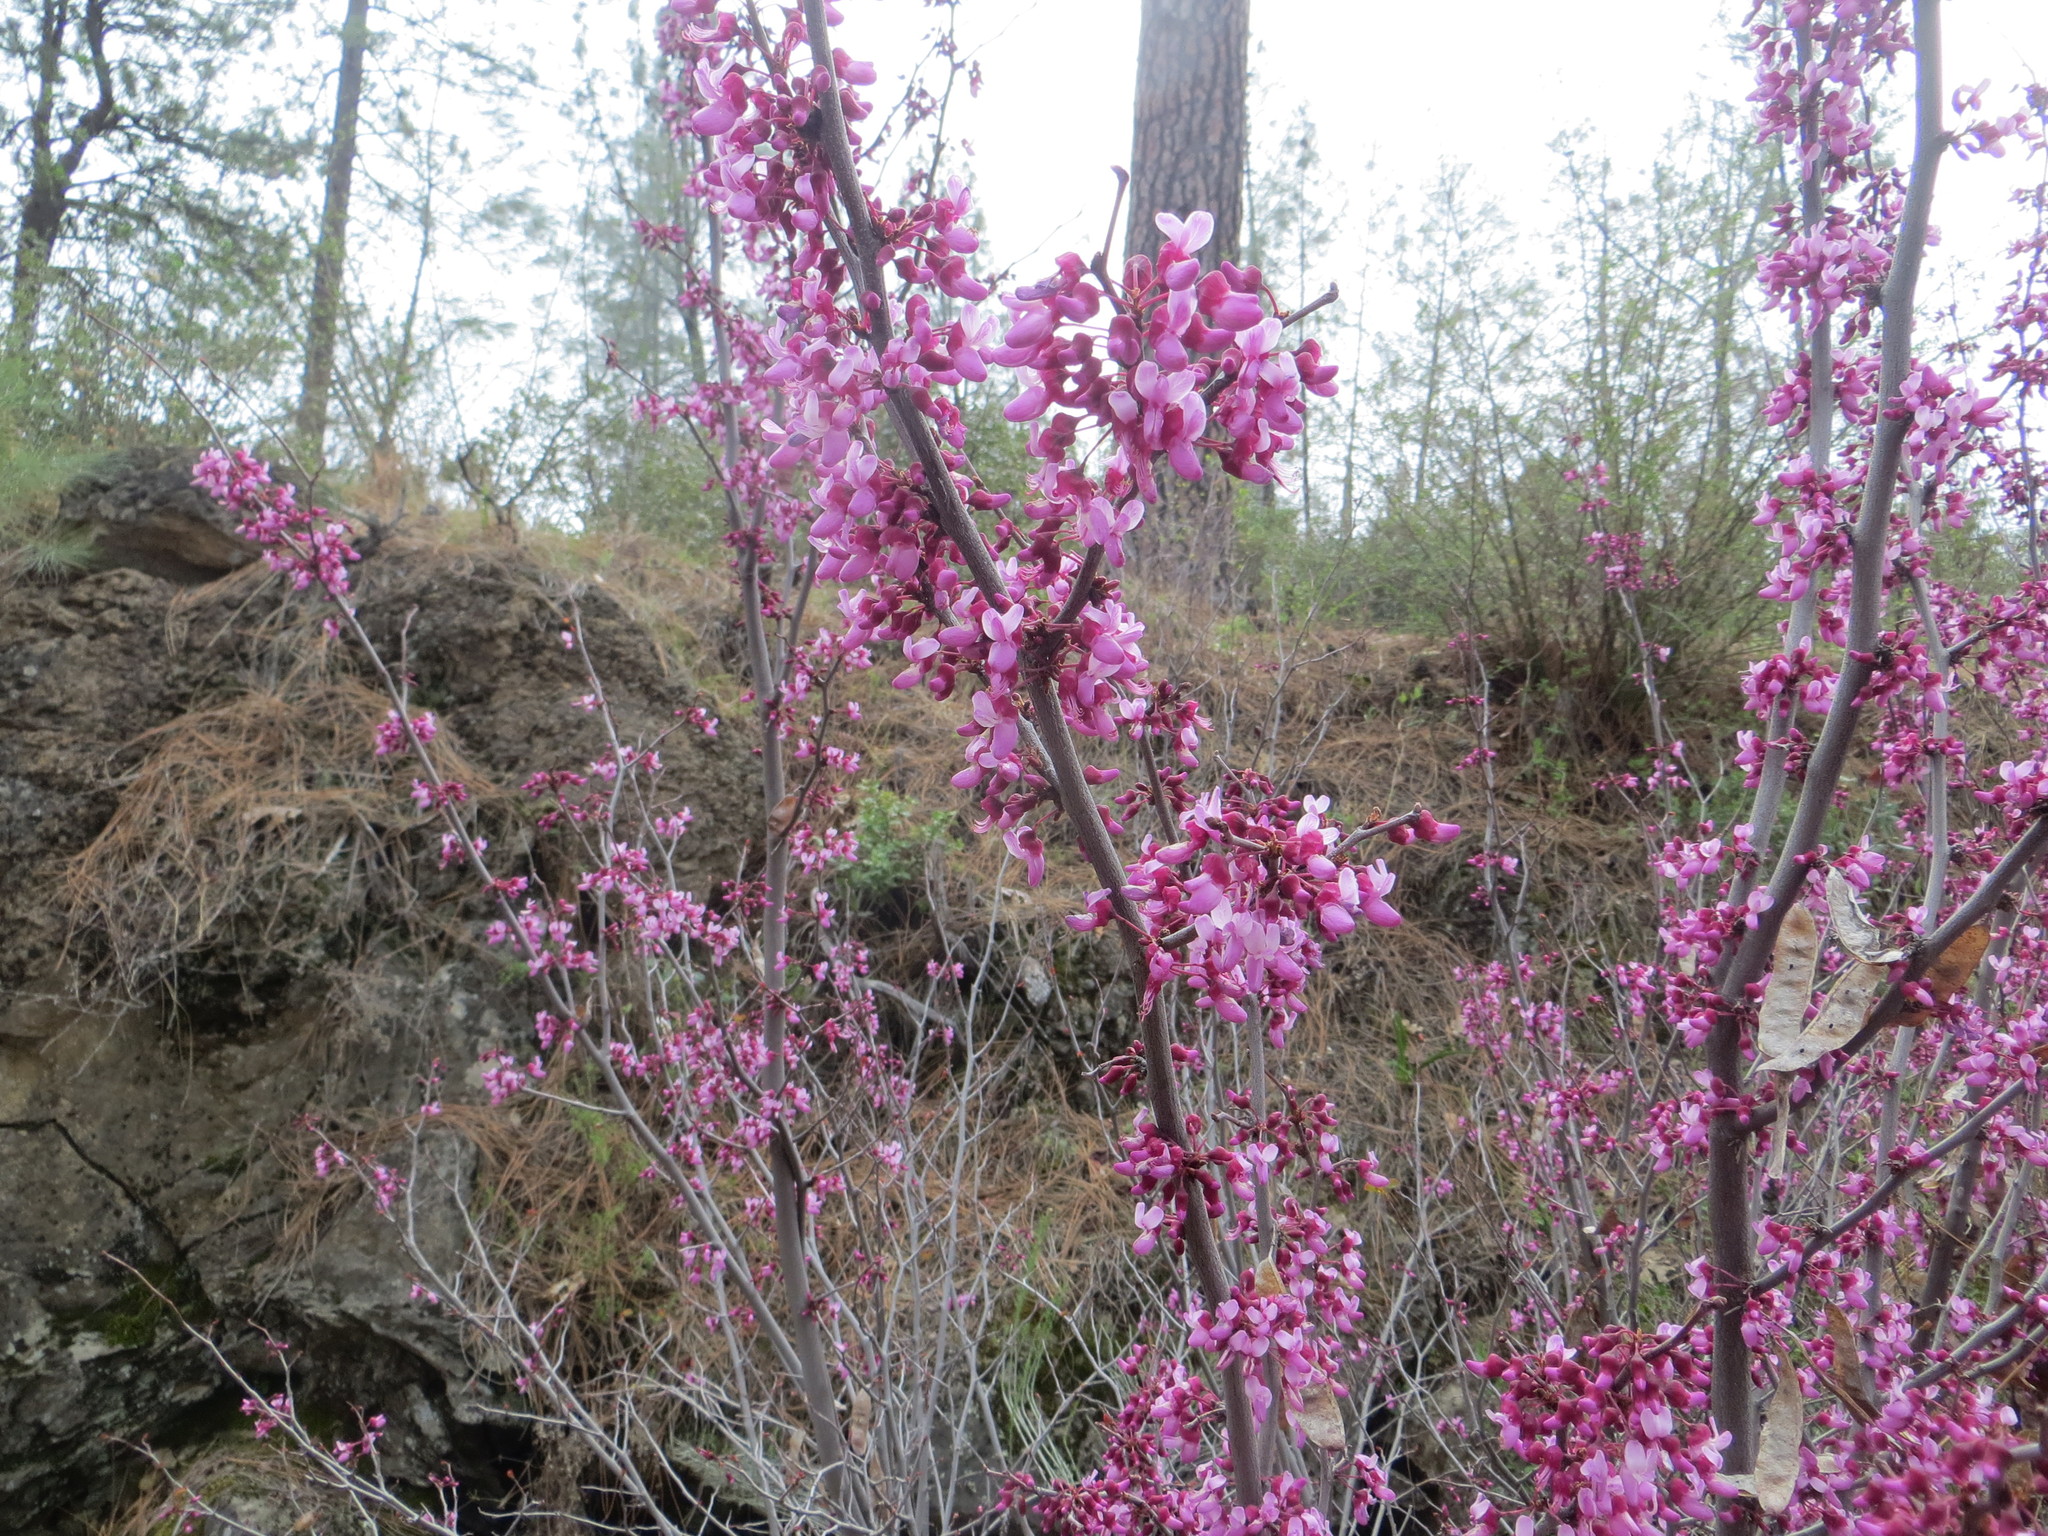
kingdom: Plantae
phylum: Tracheophyta
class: Magnoliopsida
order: Fabales
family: Fabaceae
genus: Cercis
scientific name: Cercis occidentalis
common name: California redbud
